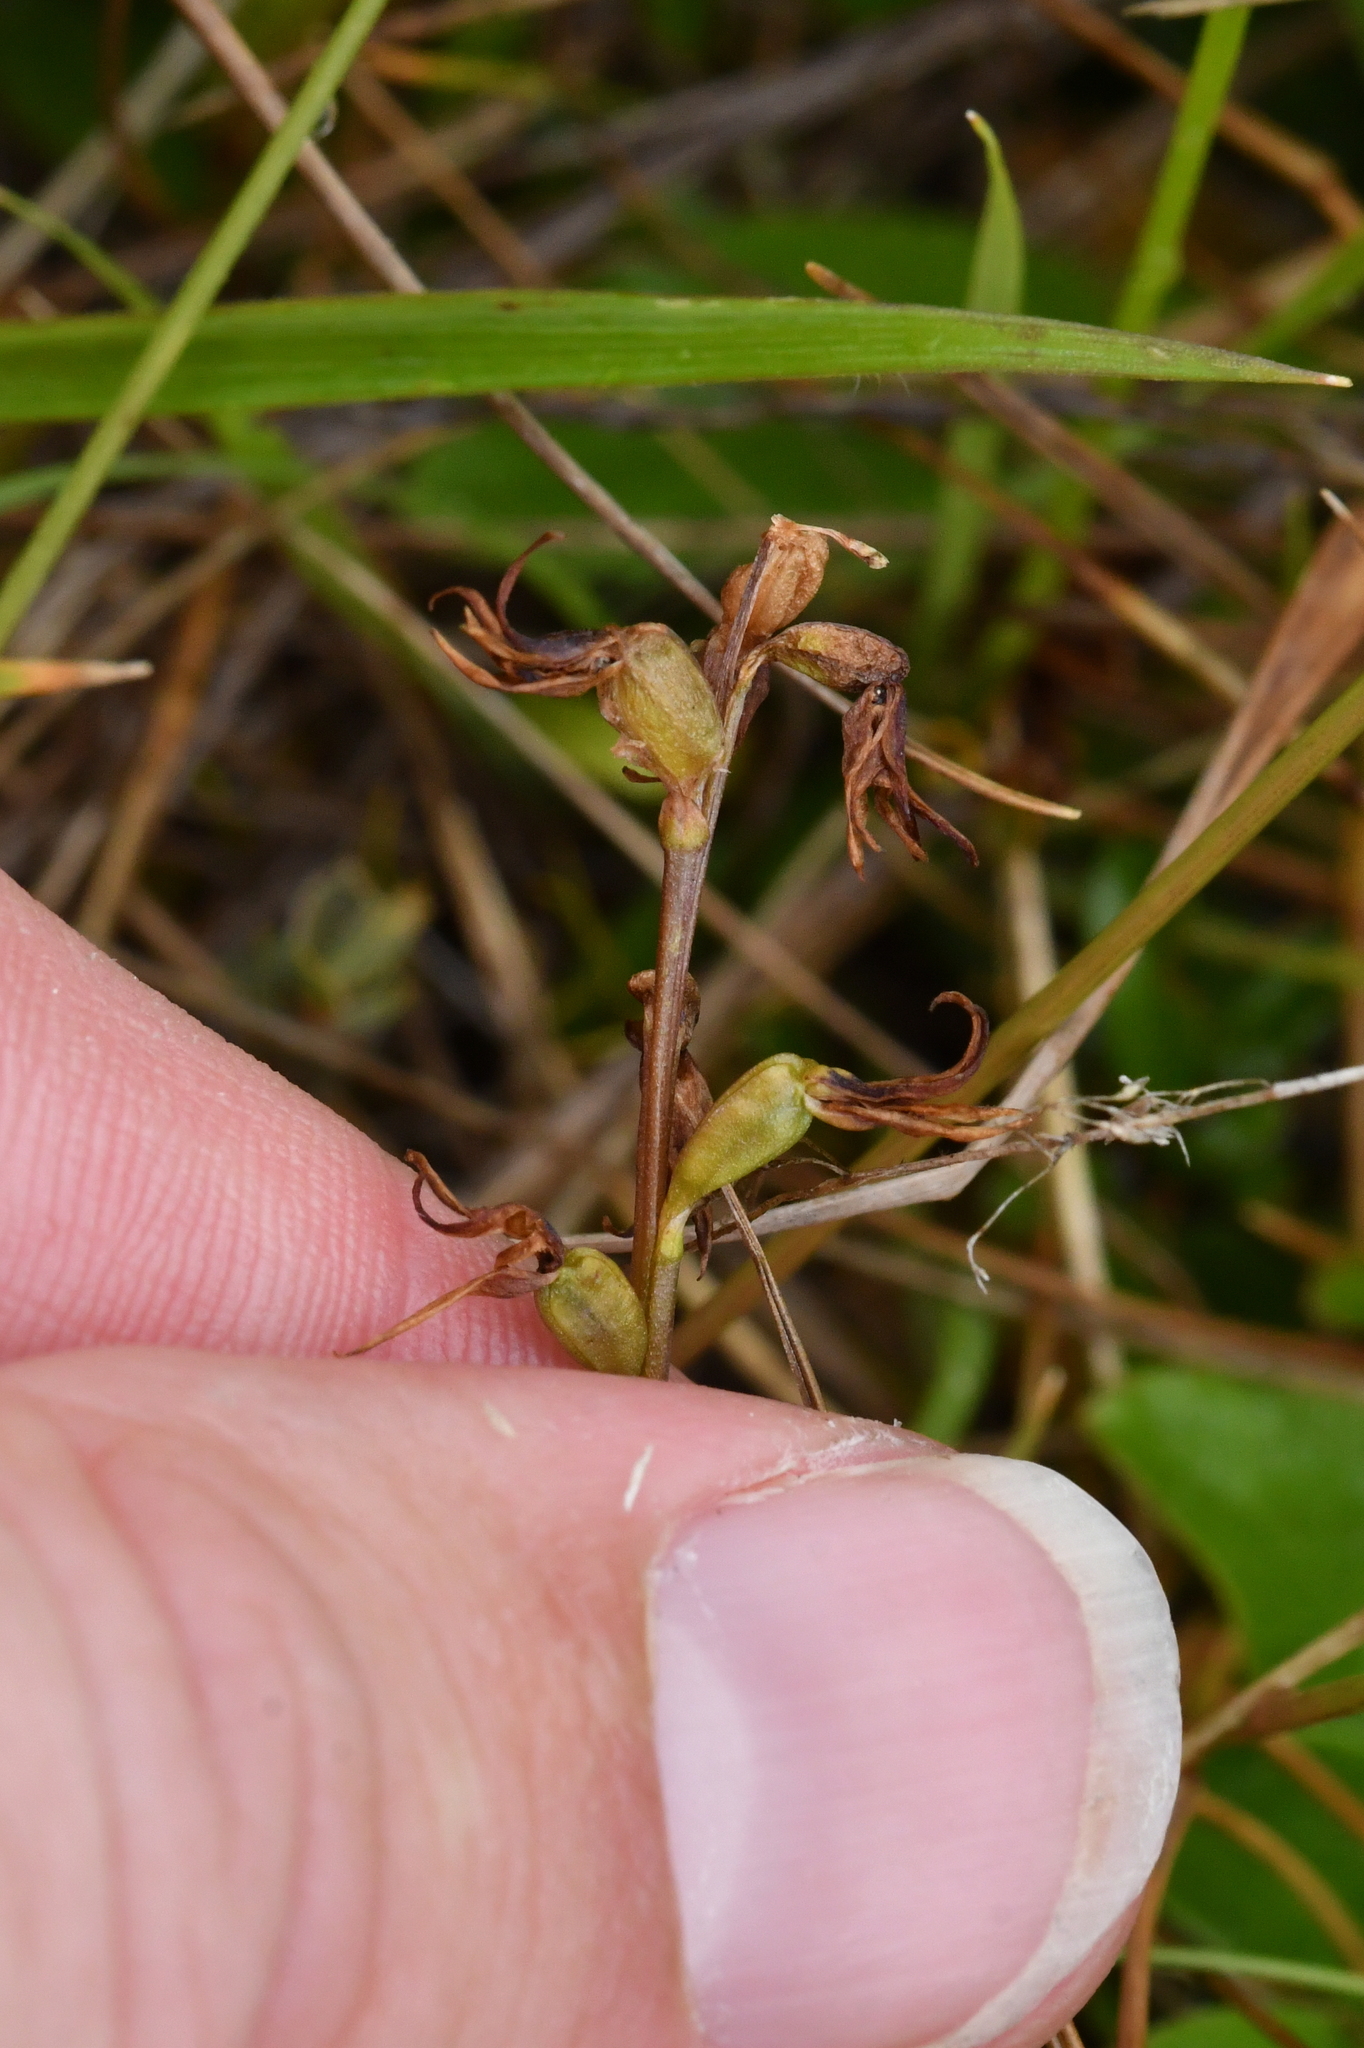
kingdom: Plantae
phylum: Tracheophyta
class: Liliopsida
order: Asparagales
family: Orchidaceae
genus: Prasophyllum
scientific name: Prasophyllum colensoi
